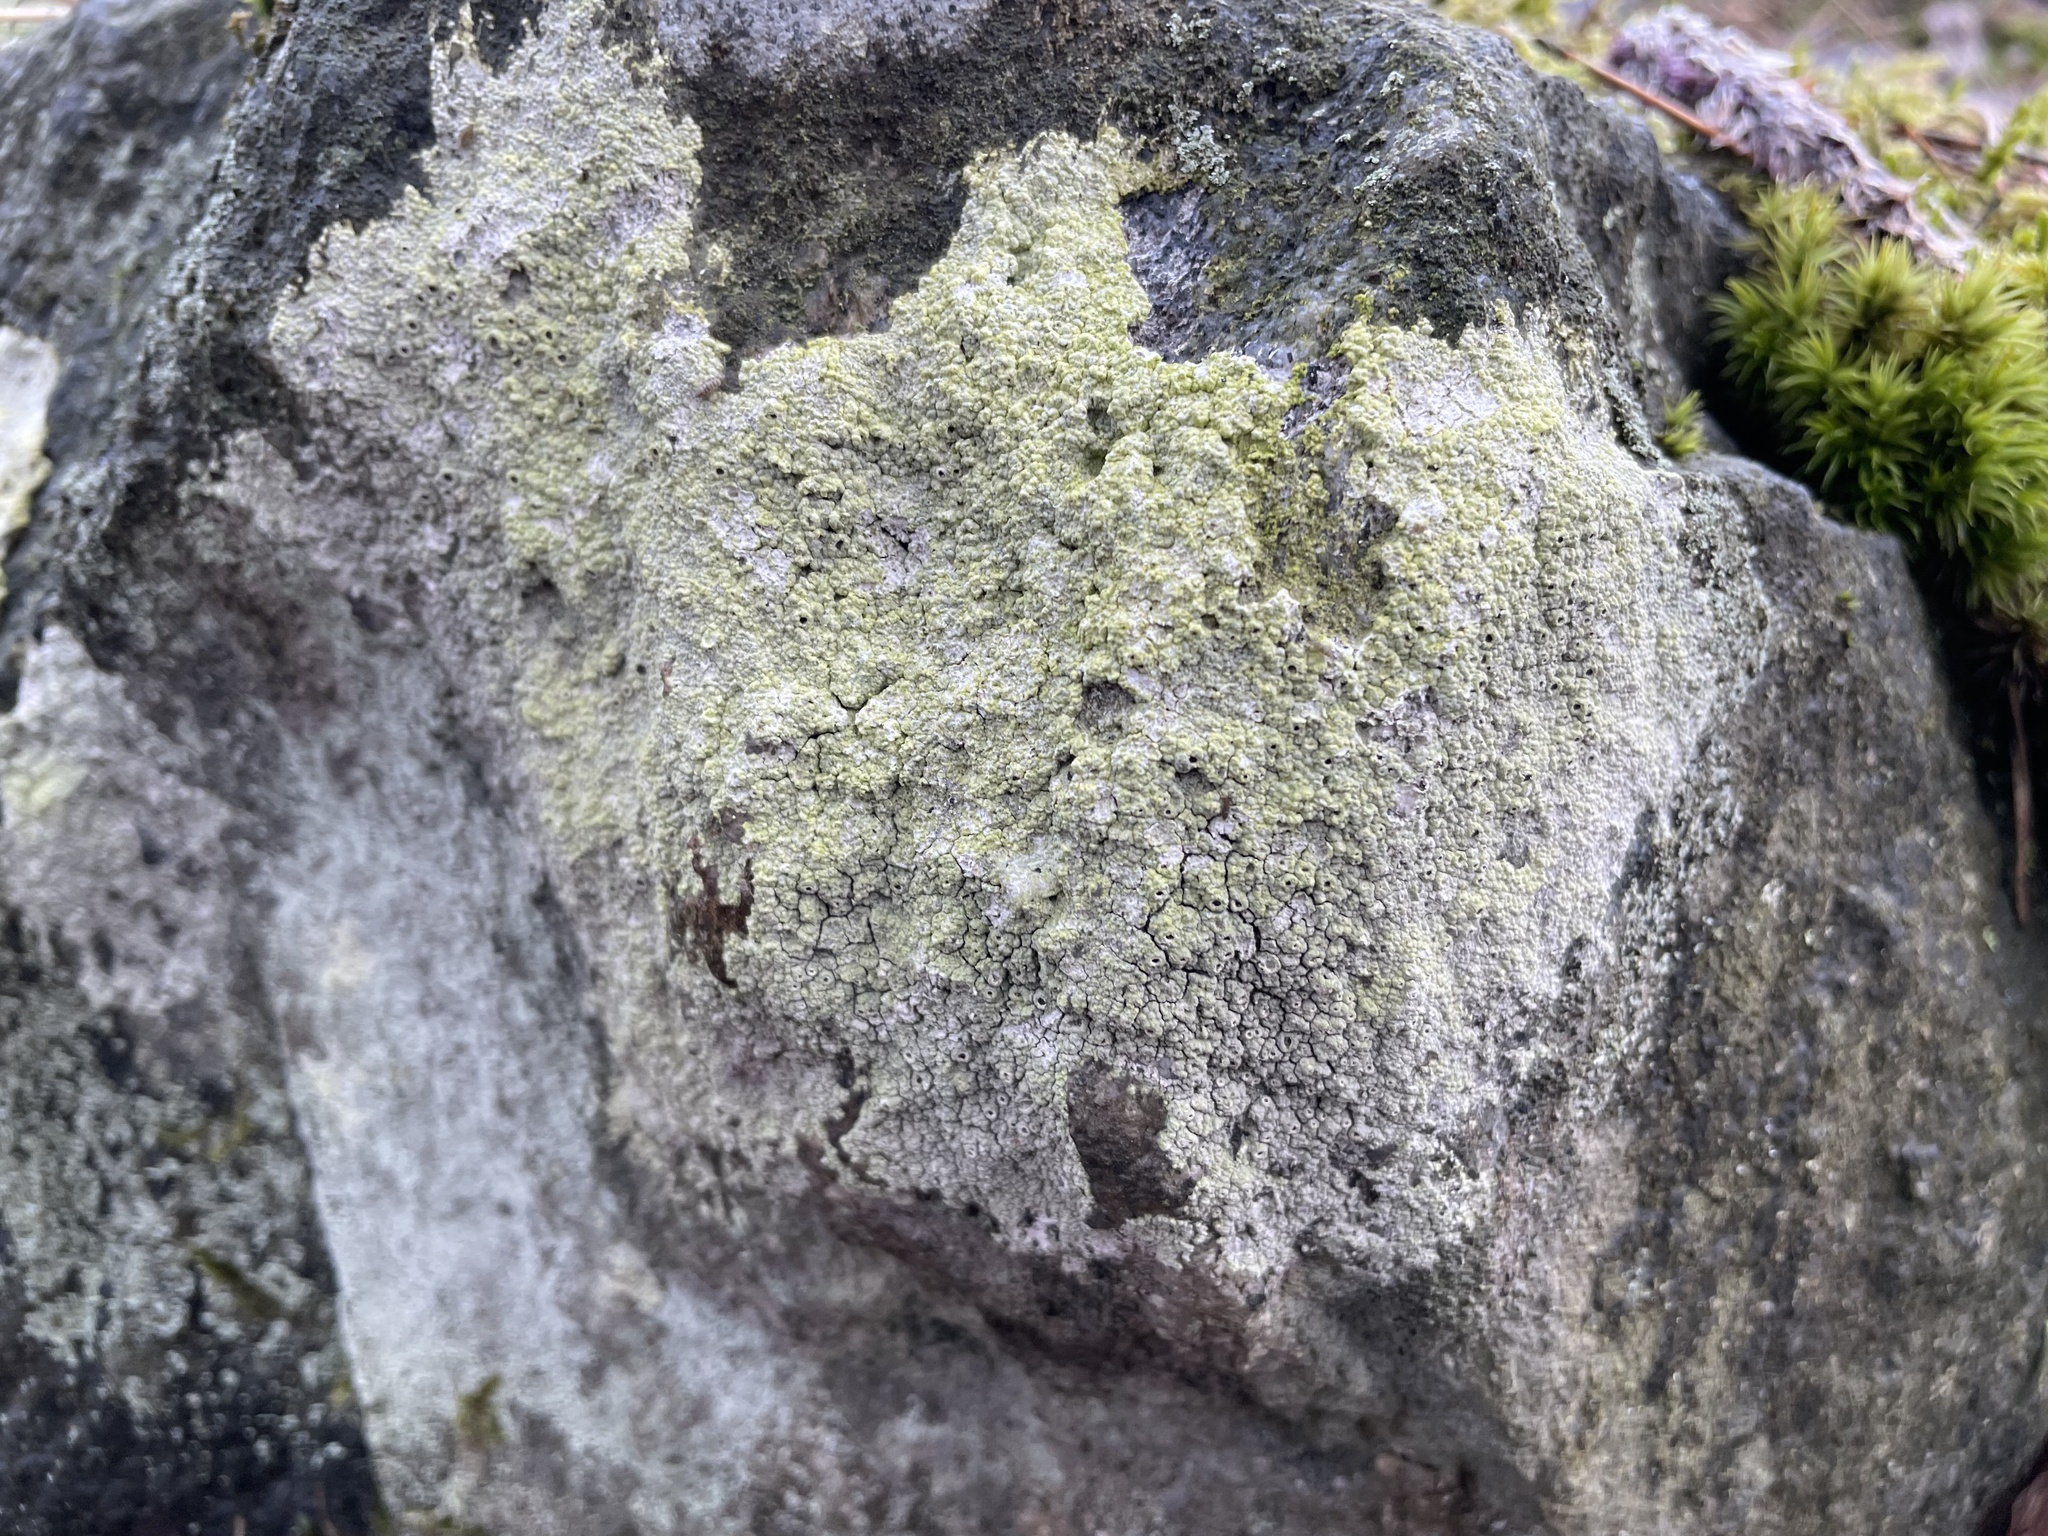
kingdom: Fungi
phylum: Ascomycota
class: Lecanoromycetes
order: Ostropales
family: Graphidaceae
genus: Diploschistes
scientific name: Diploschistes scruposus
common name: Crater lichen
